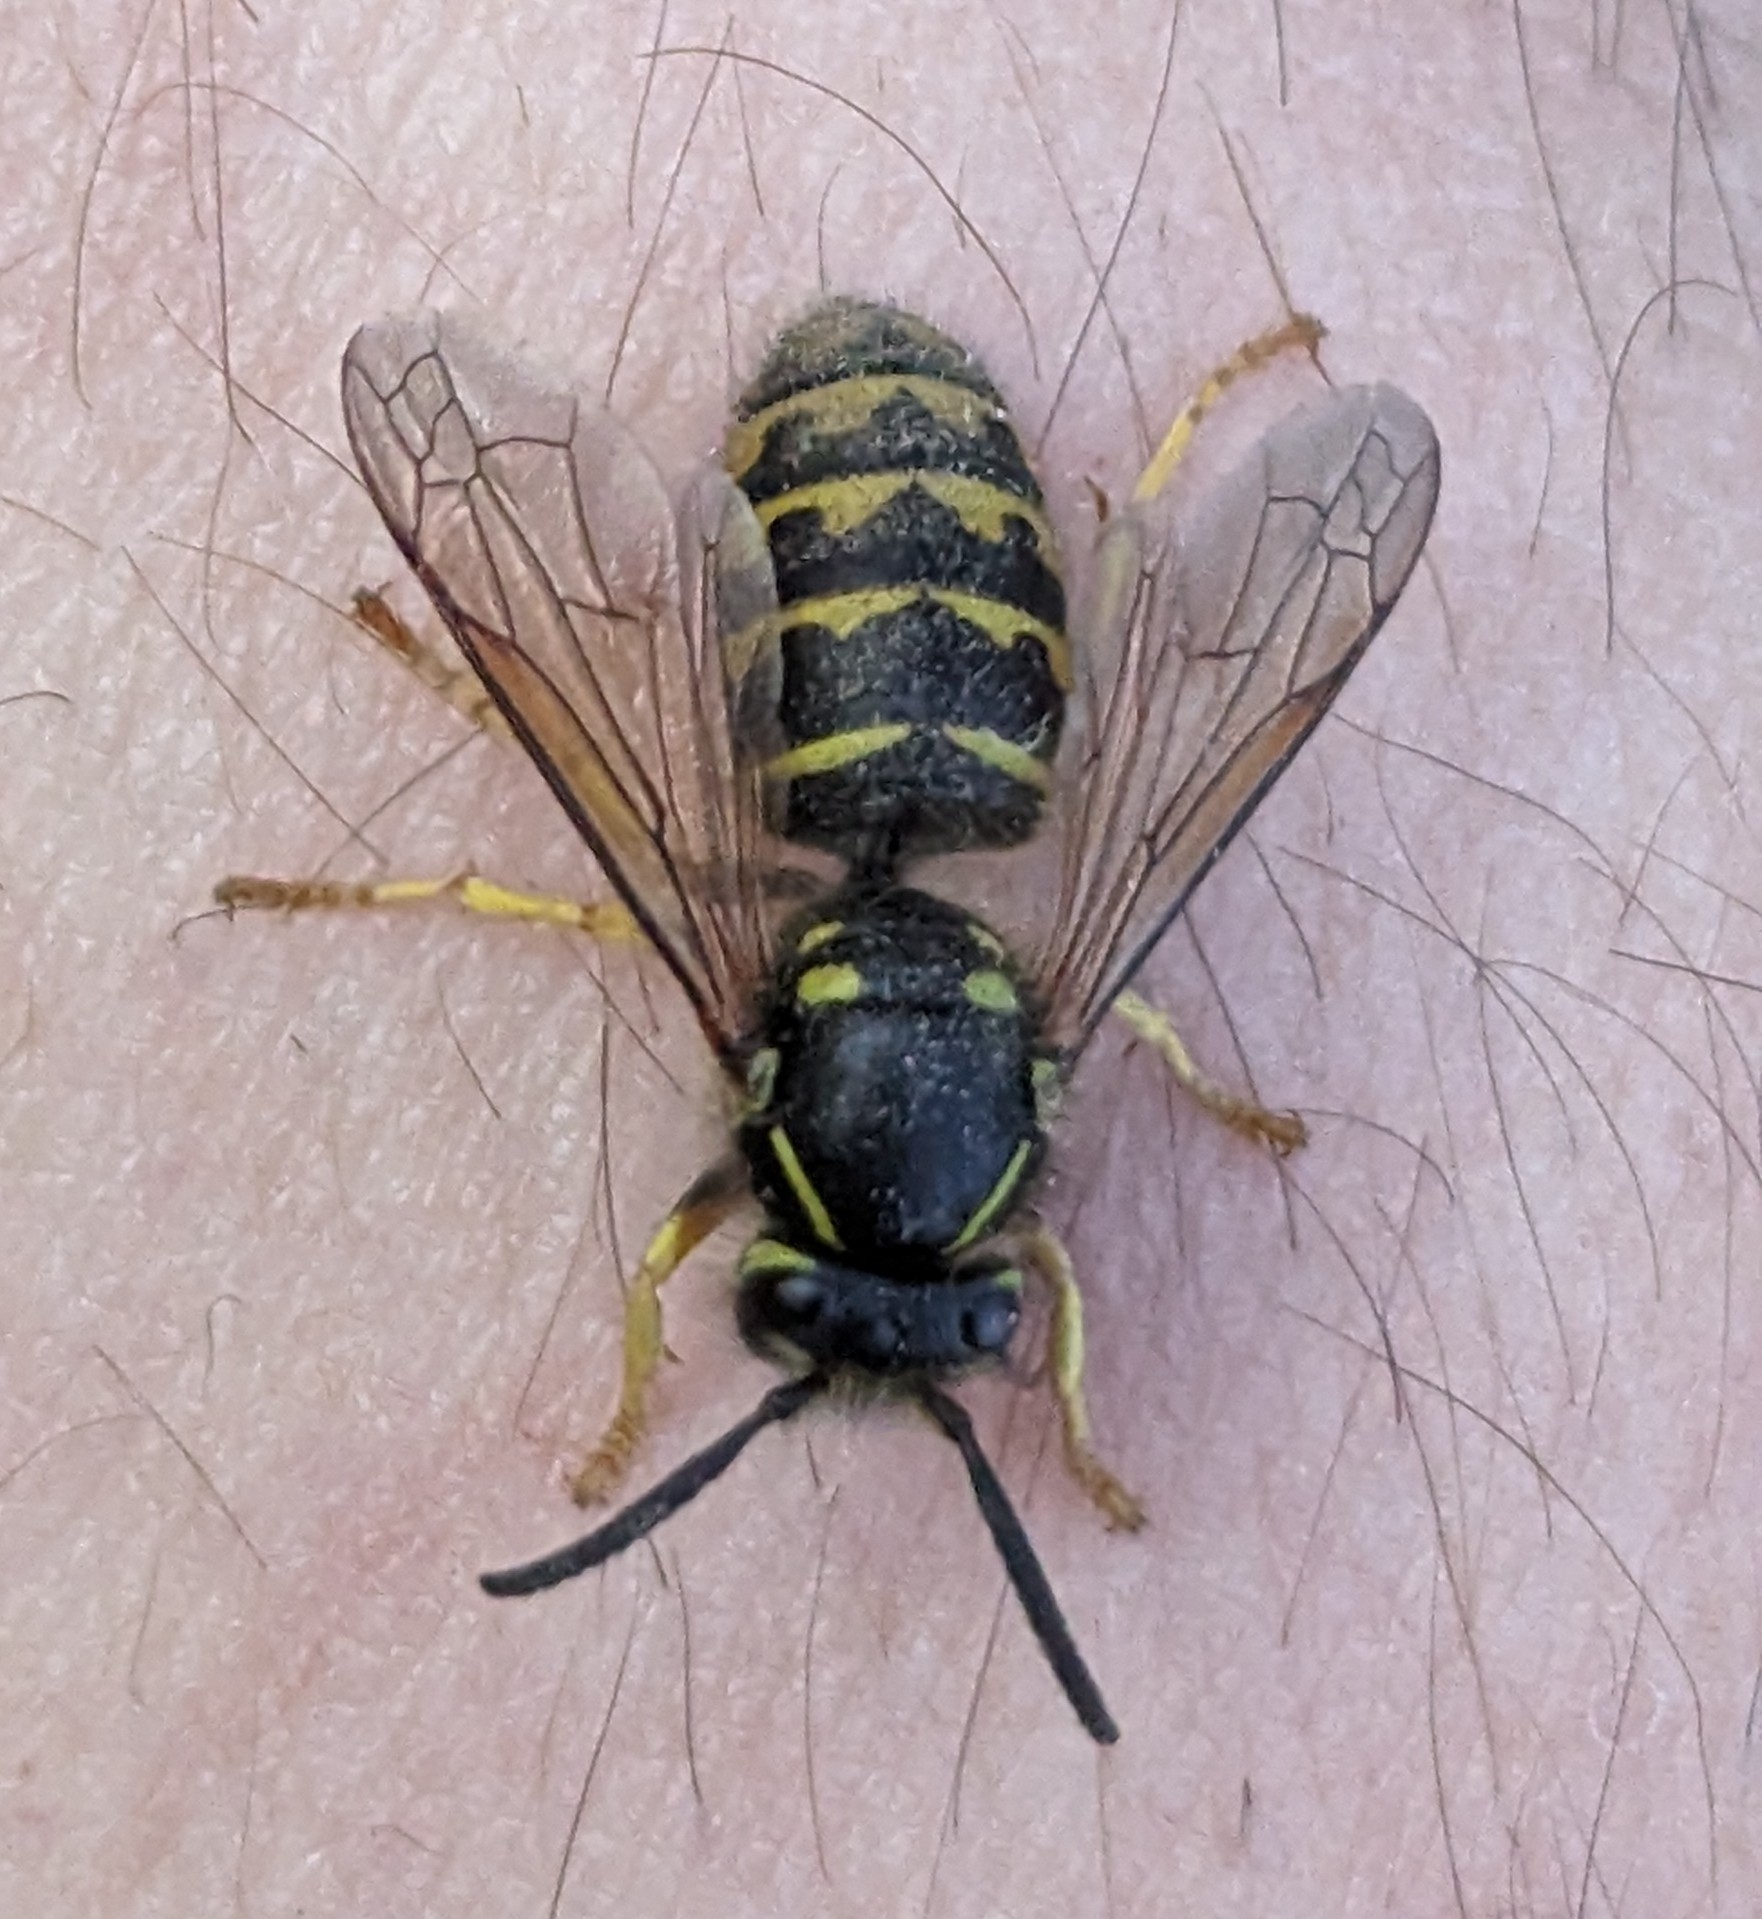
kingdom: Animalia
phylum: Arthropoda
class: Insecta
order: Hymenoptera
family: Vespidae
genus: Dolichovespula
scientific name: Dolichovespula arenaria
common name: Aerial yellowjacket
